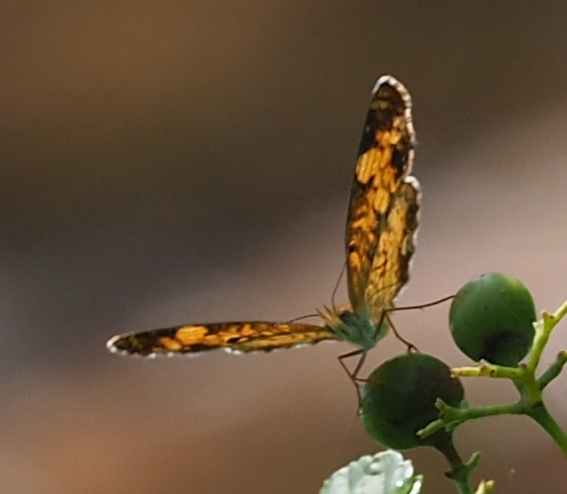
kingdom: Animalia
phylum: Arthropoda
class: Insecta
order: Lepidoptera
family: Nymphalidae
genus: Phyciodes
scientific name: Phyciodes tharos
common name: Pearl crescent
